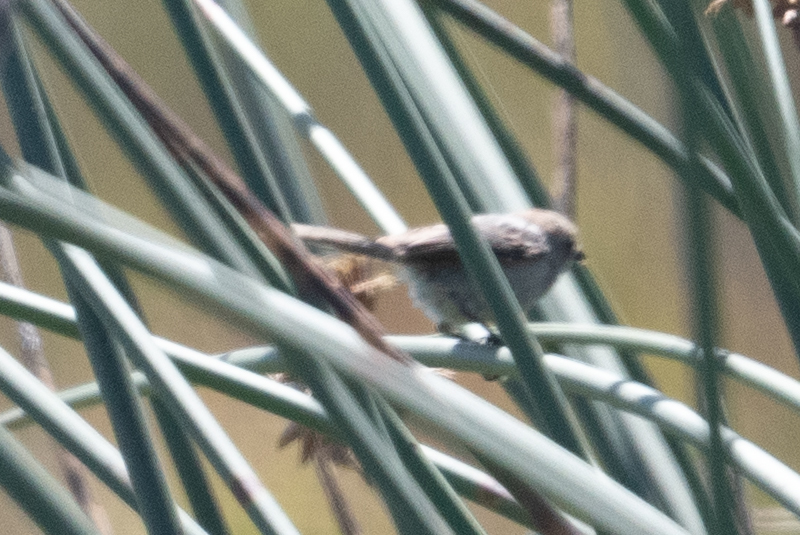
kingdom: Animalia
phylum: Chordata
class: Aves
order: Passeriformes
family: Aegithalidae
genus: Psaltriparus
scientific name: Psaltriparus minimus
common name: American bushtit
